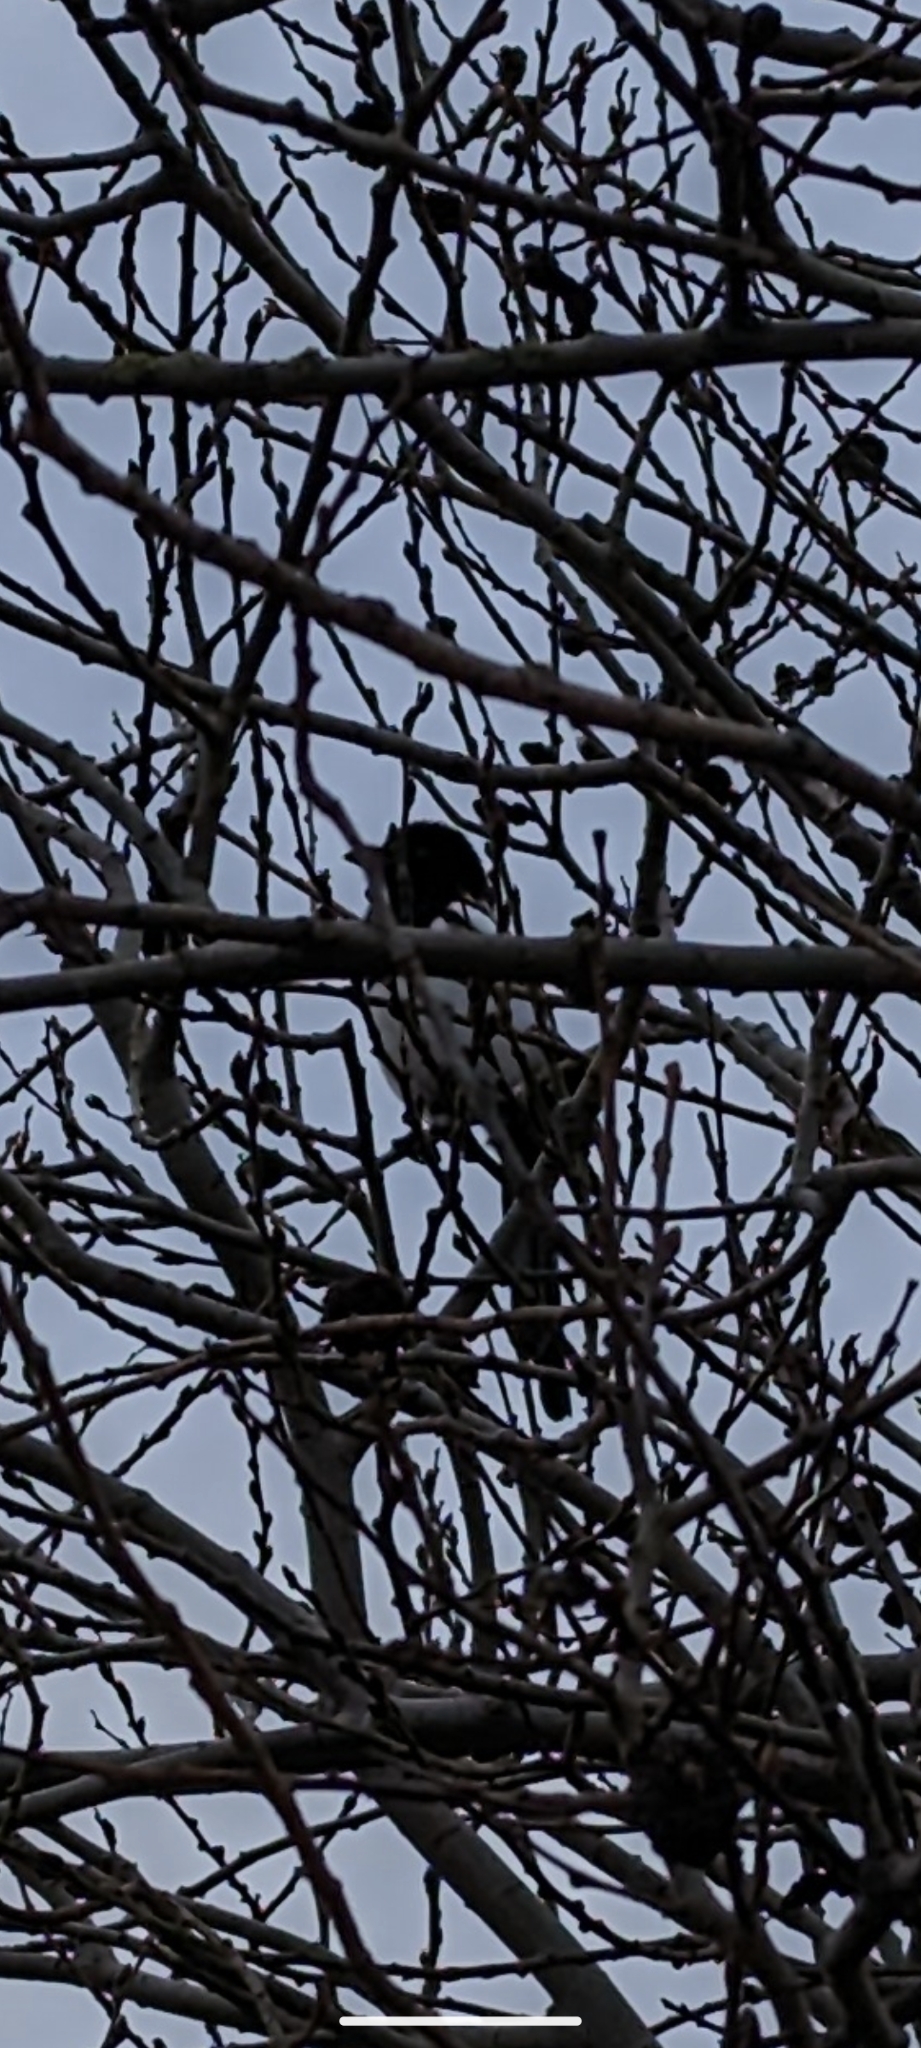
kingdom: Animalia
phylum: Chordata
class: Aves
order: Passeriformes
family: Corvidae
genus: Pica
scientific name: Pica pica
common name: Eurasian magpie
